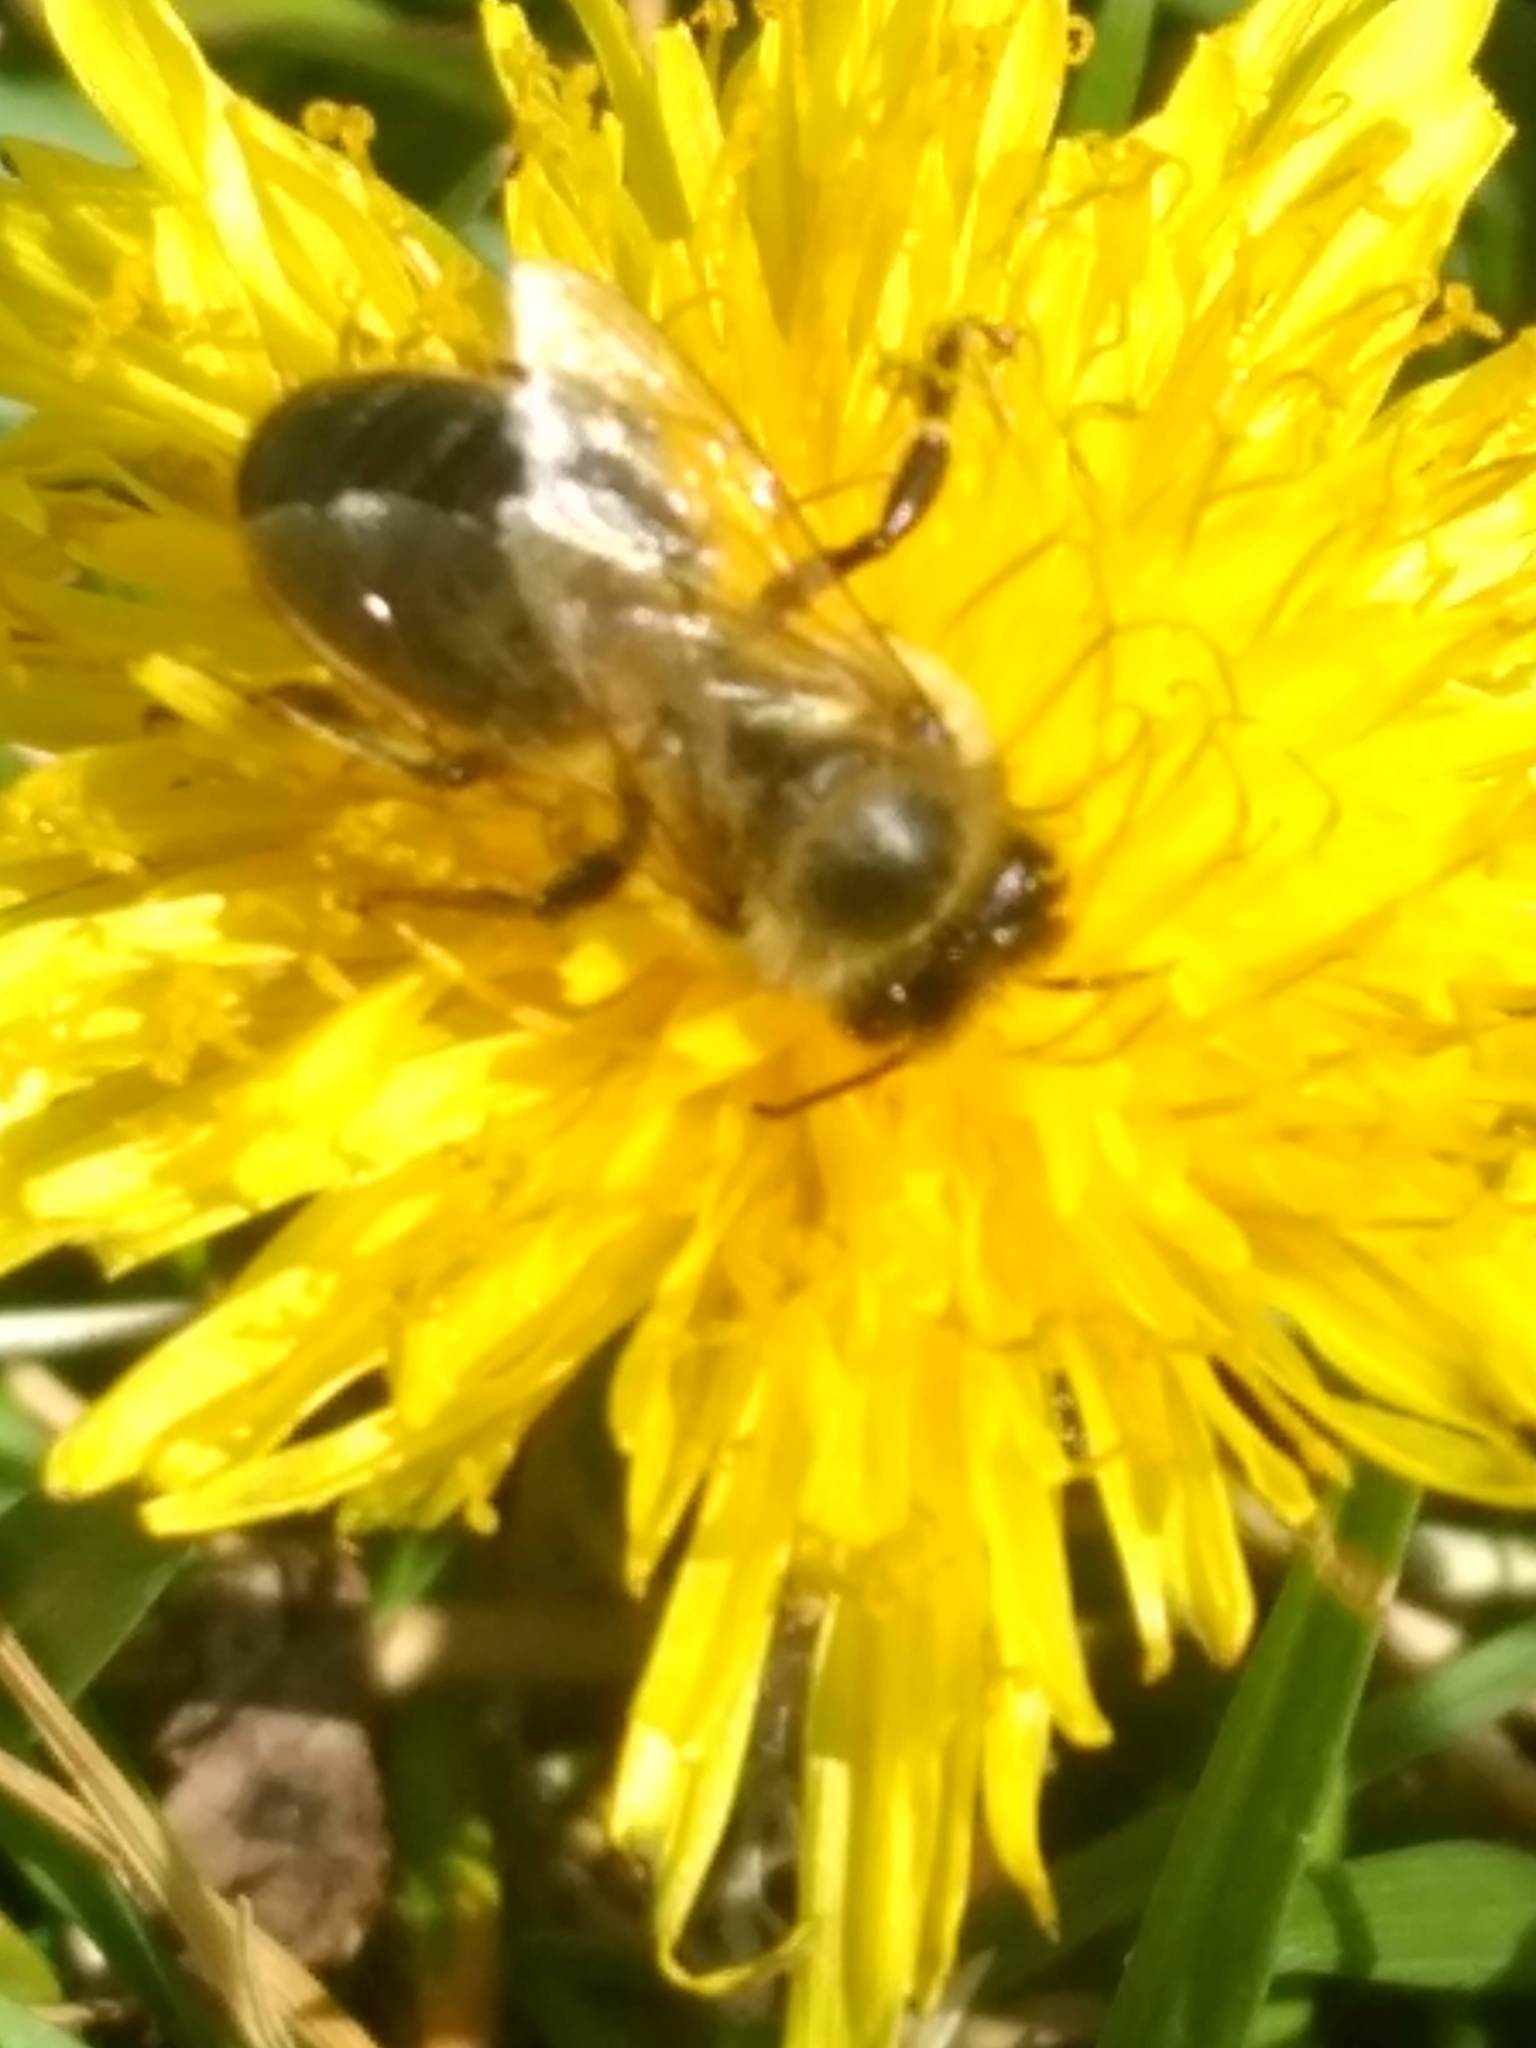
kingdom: Animalia
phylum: Arthropoda
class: Insecta
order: Hymenoptera
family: Apidae
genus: Apis
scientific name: Apis mellifera
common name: Honey bee
